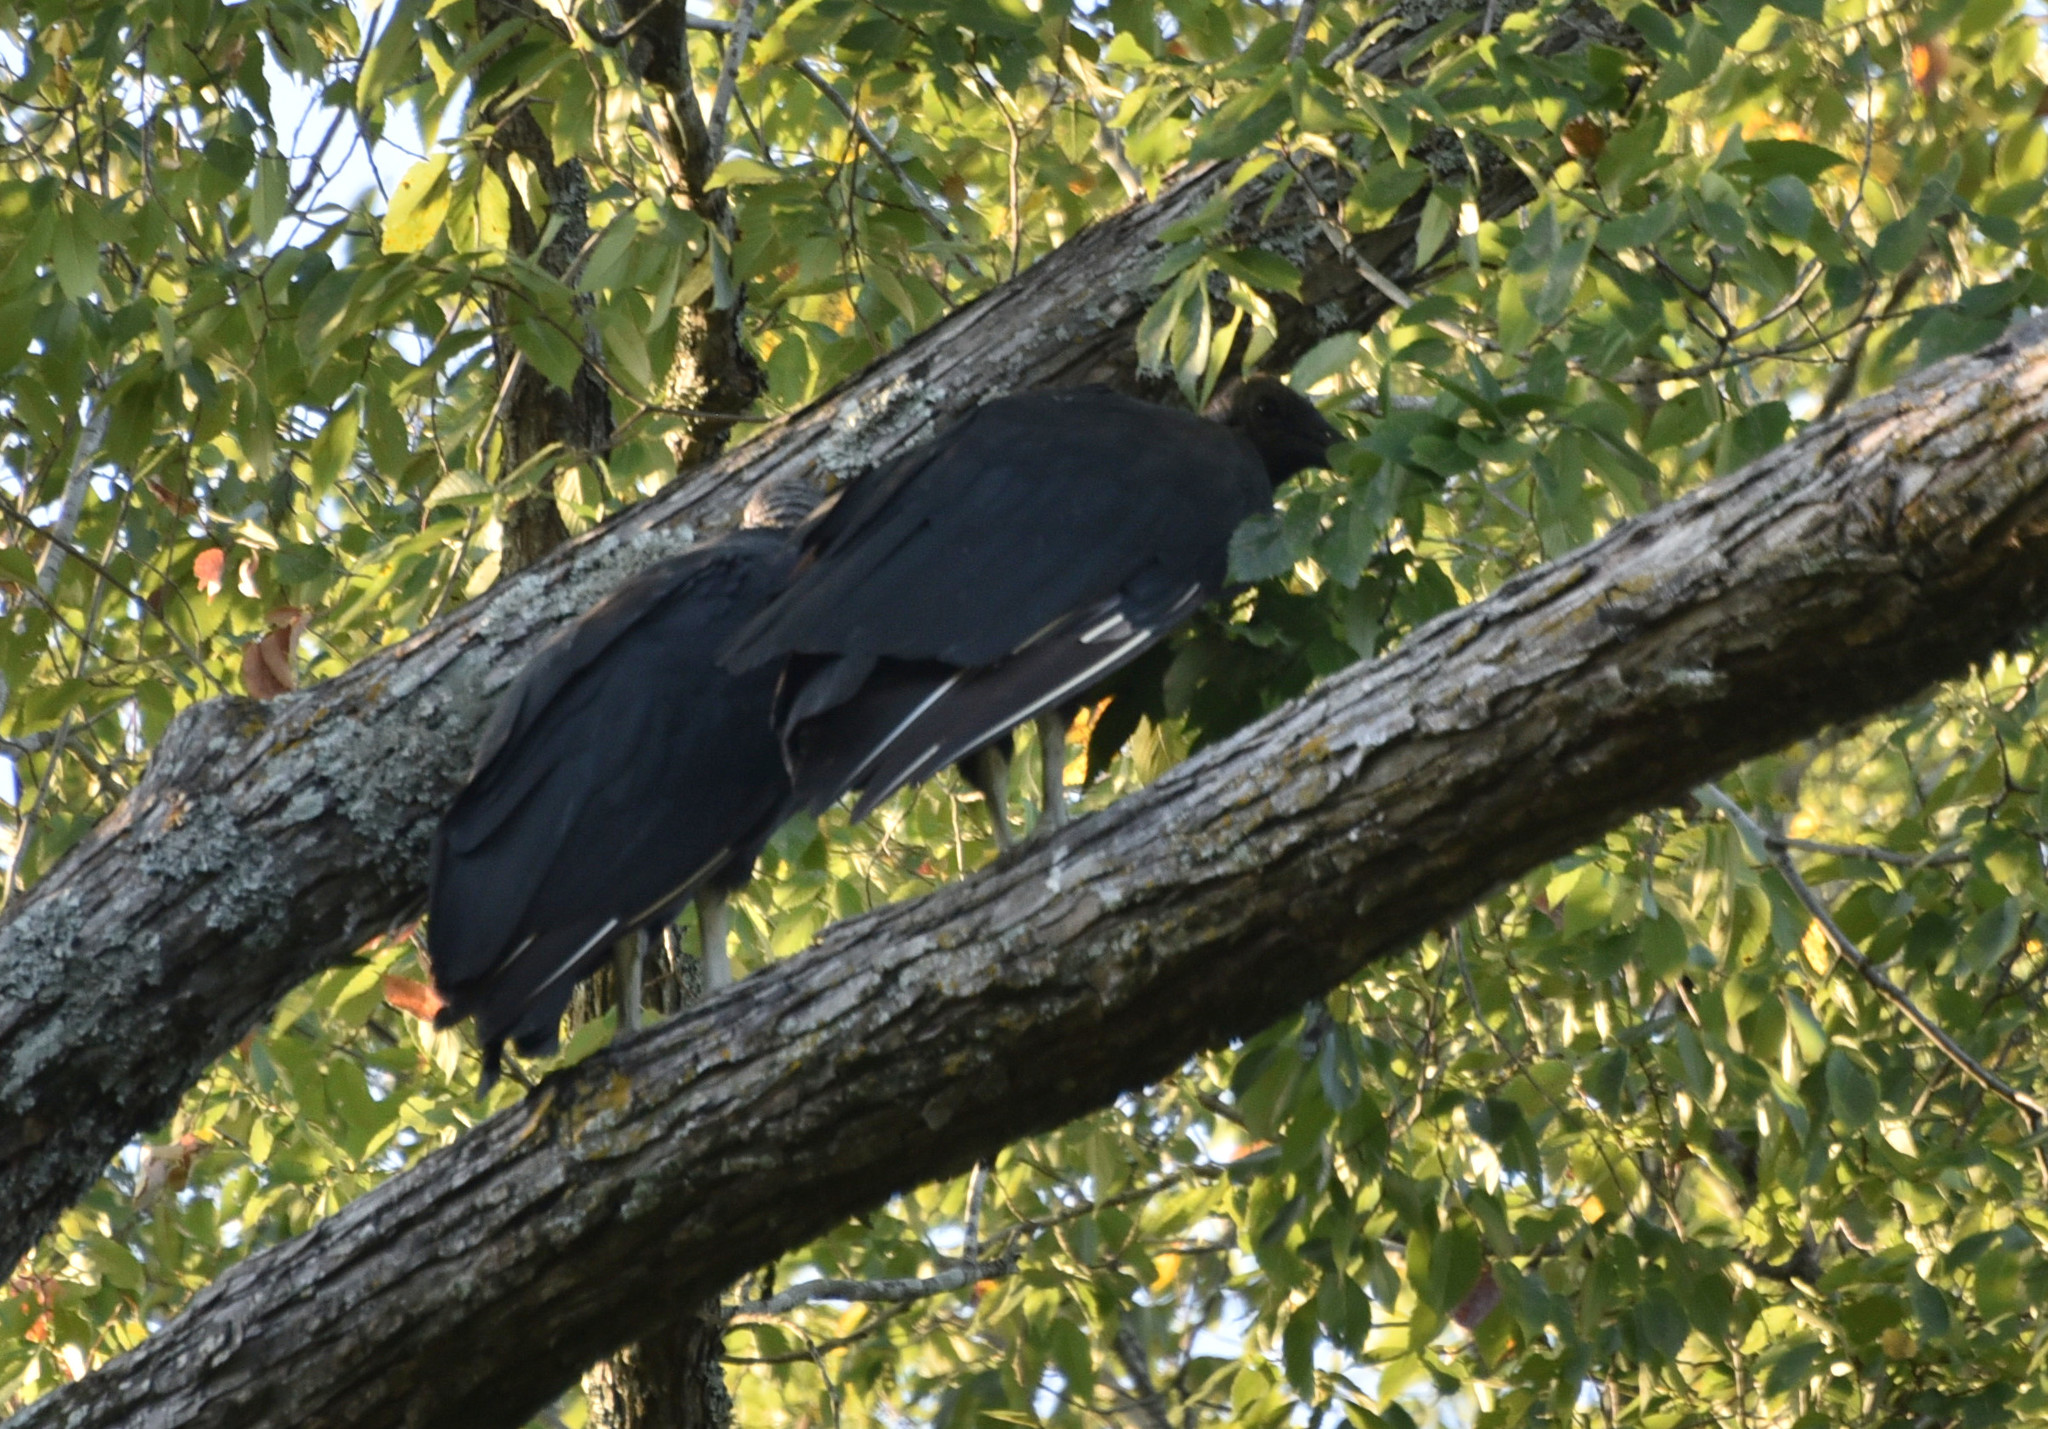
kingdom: Animalia
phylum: Chordata
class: Aves
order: Accipitriformes
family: Cathartidae
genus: Coragyps
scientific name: Coragyps atratus
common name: Black vulture
